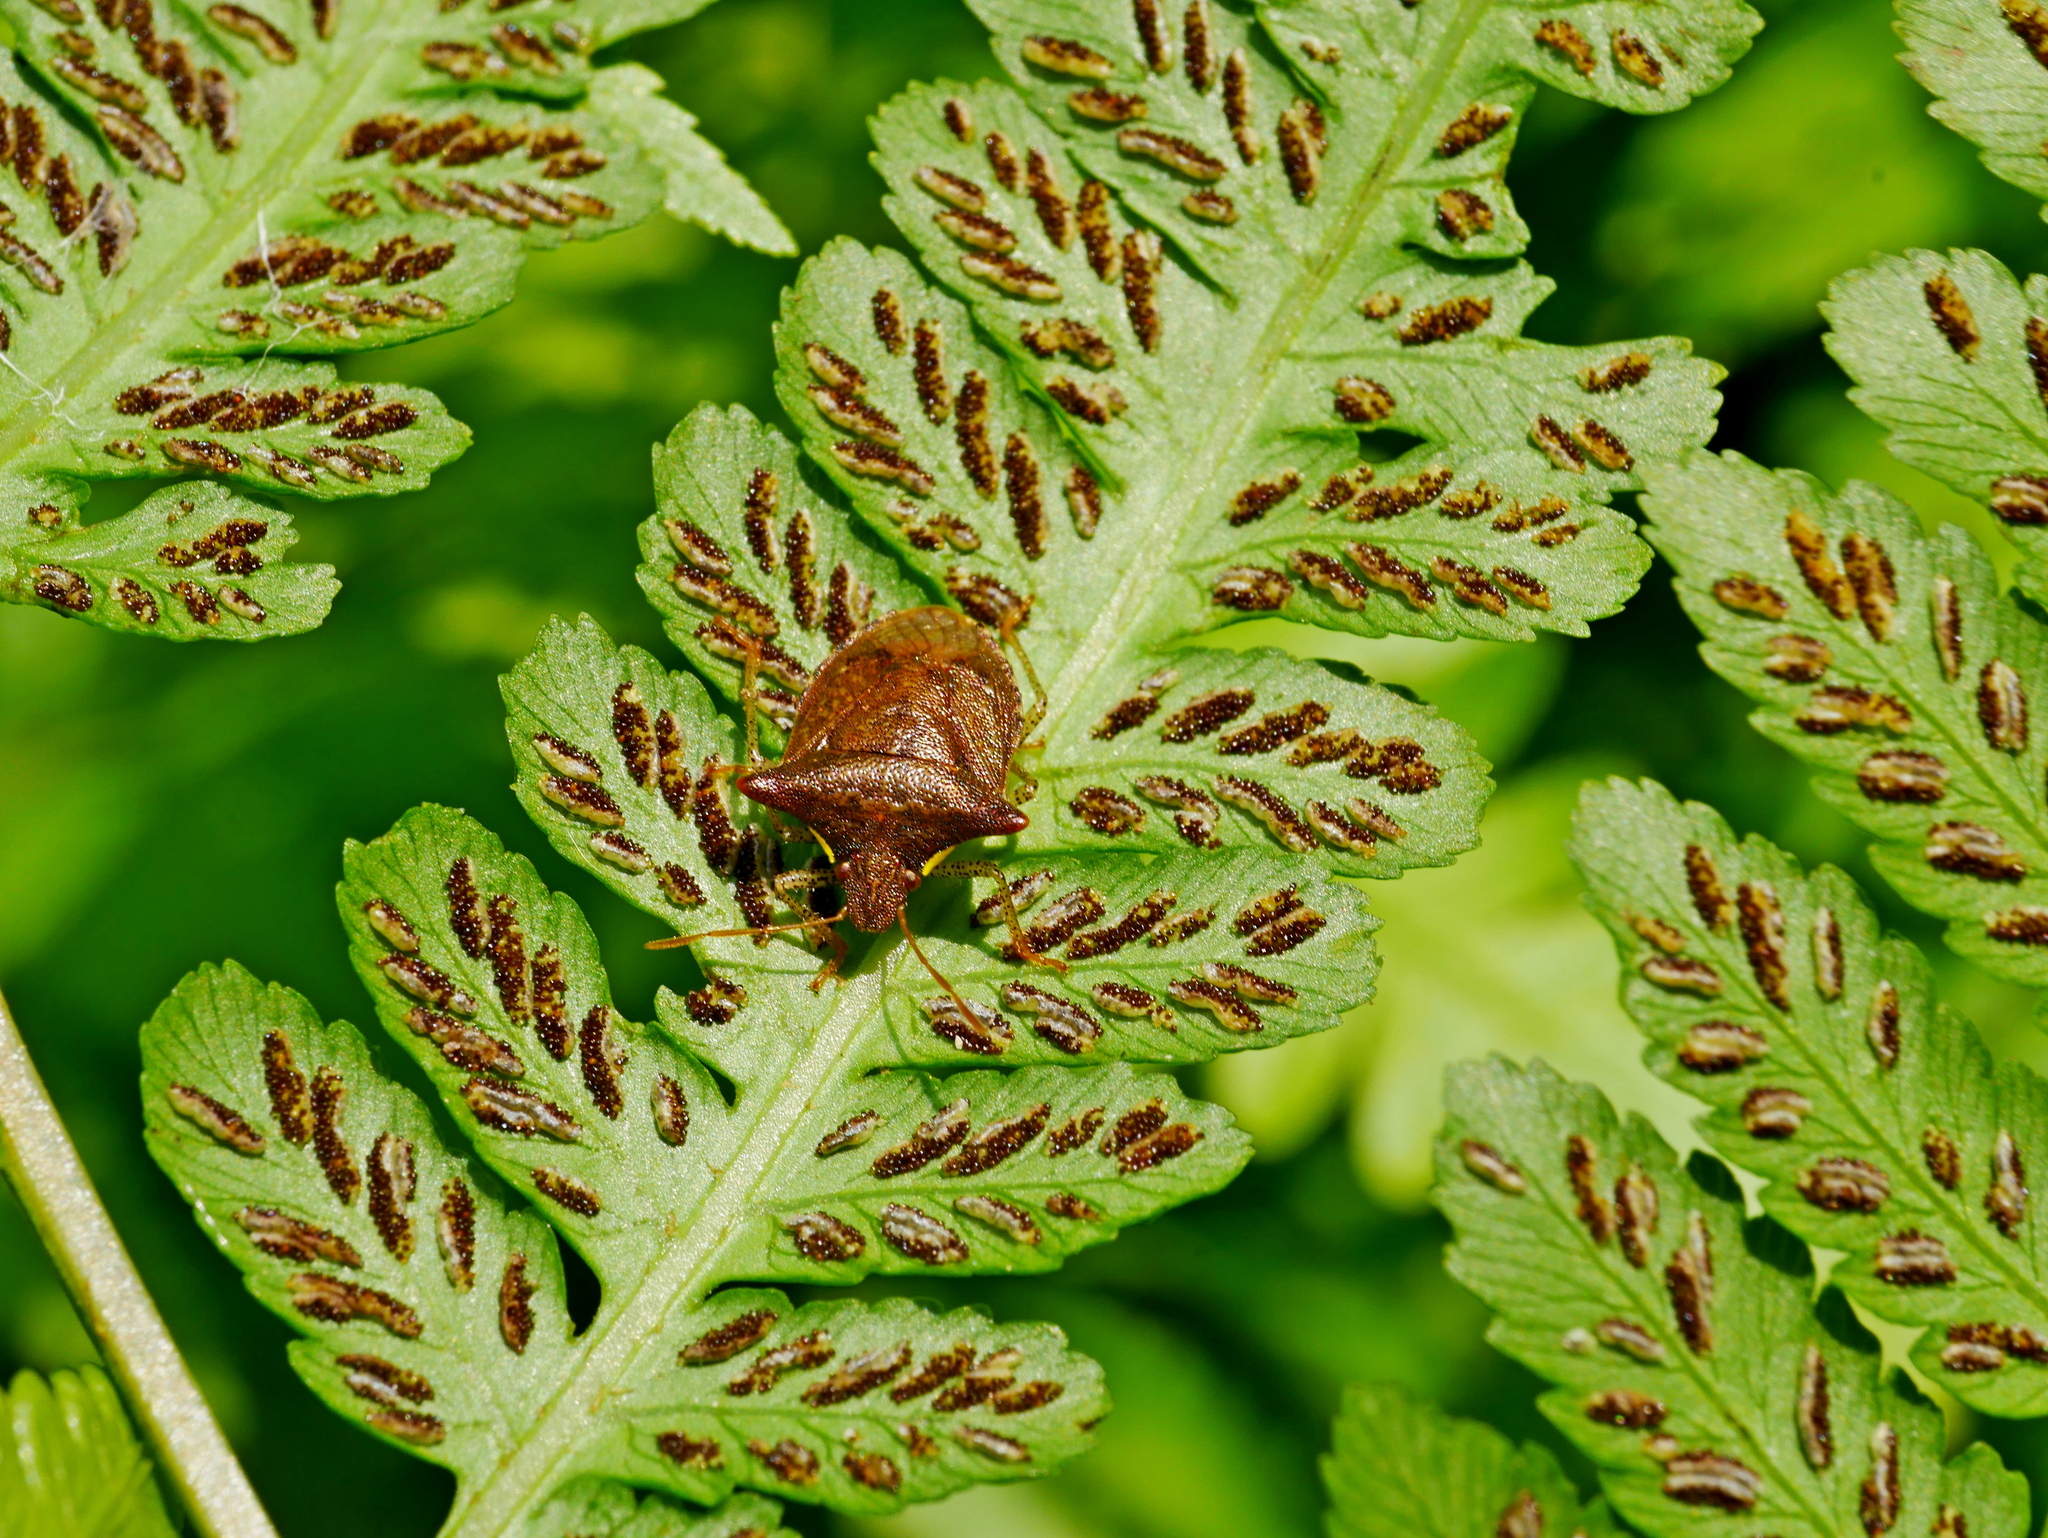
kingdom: Animalia
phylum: Arthropoda
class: Insecta
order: Hemiptera
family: Pentatomidae
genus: Carbula
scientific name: Carbula crassiventris
